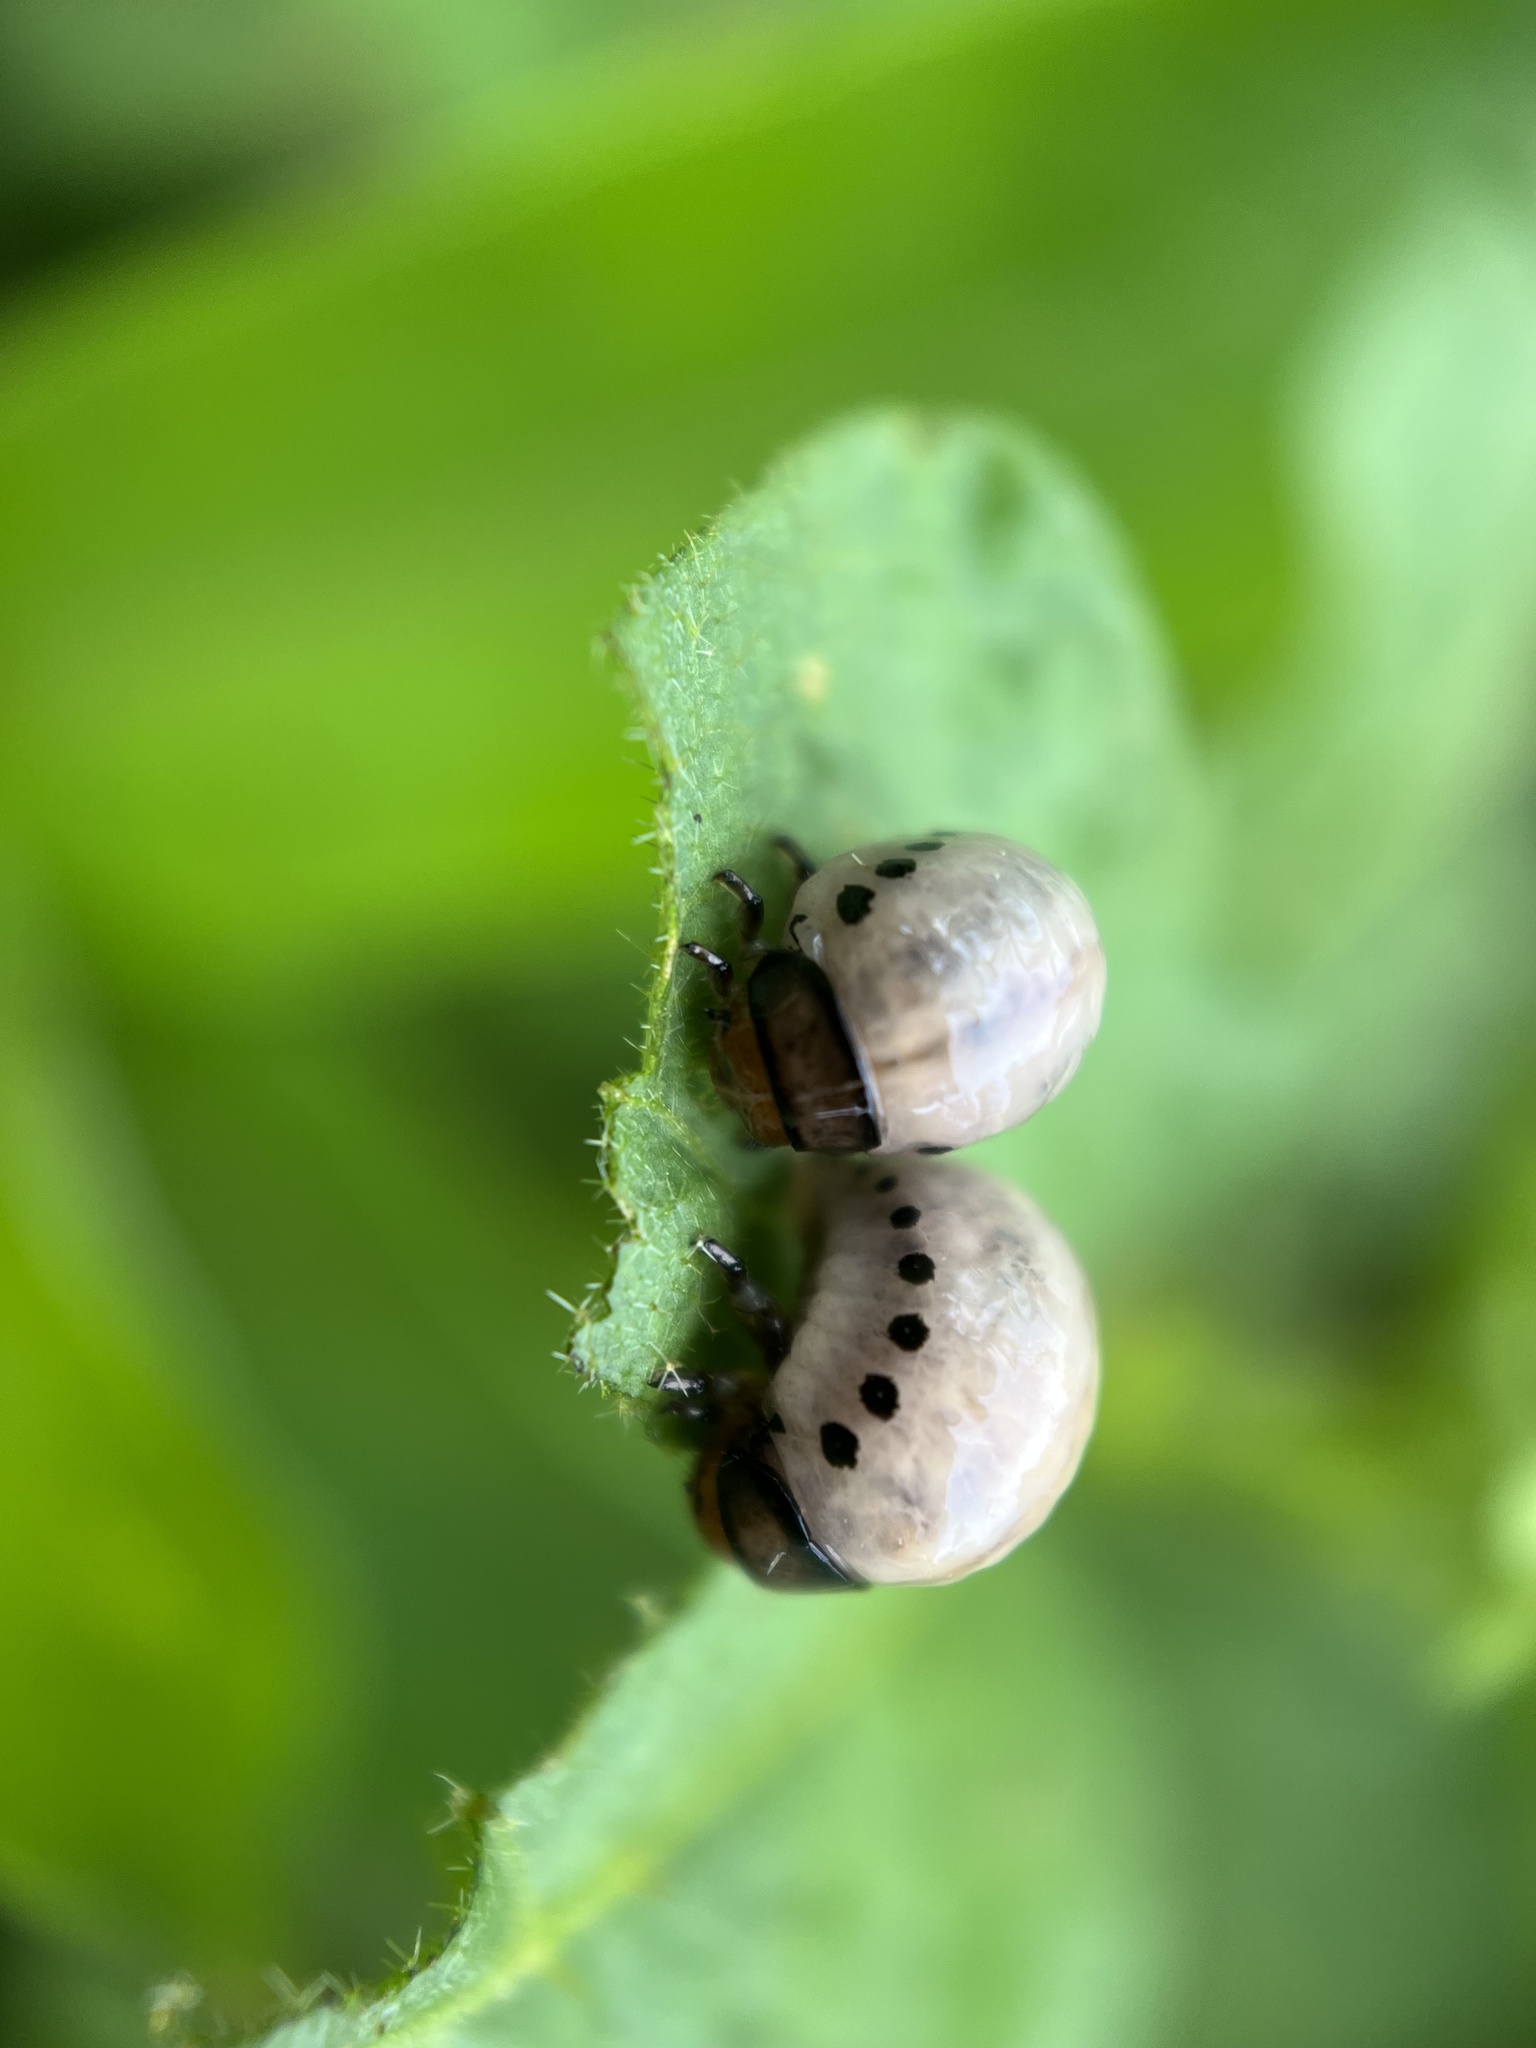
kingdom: Animalia
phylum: Arthropoda
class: Insecta
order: Coleoptera
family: Chrysomelidae
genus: Leptinotarsa
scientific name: Leptinotarsa juncta
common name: False potato beetle
